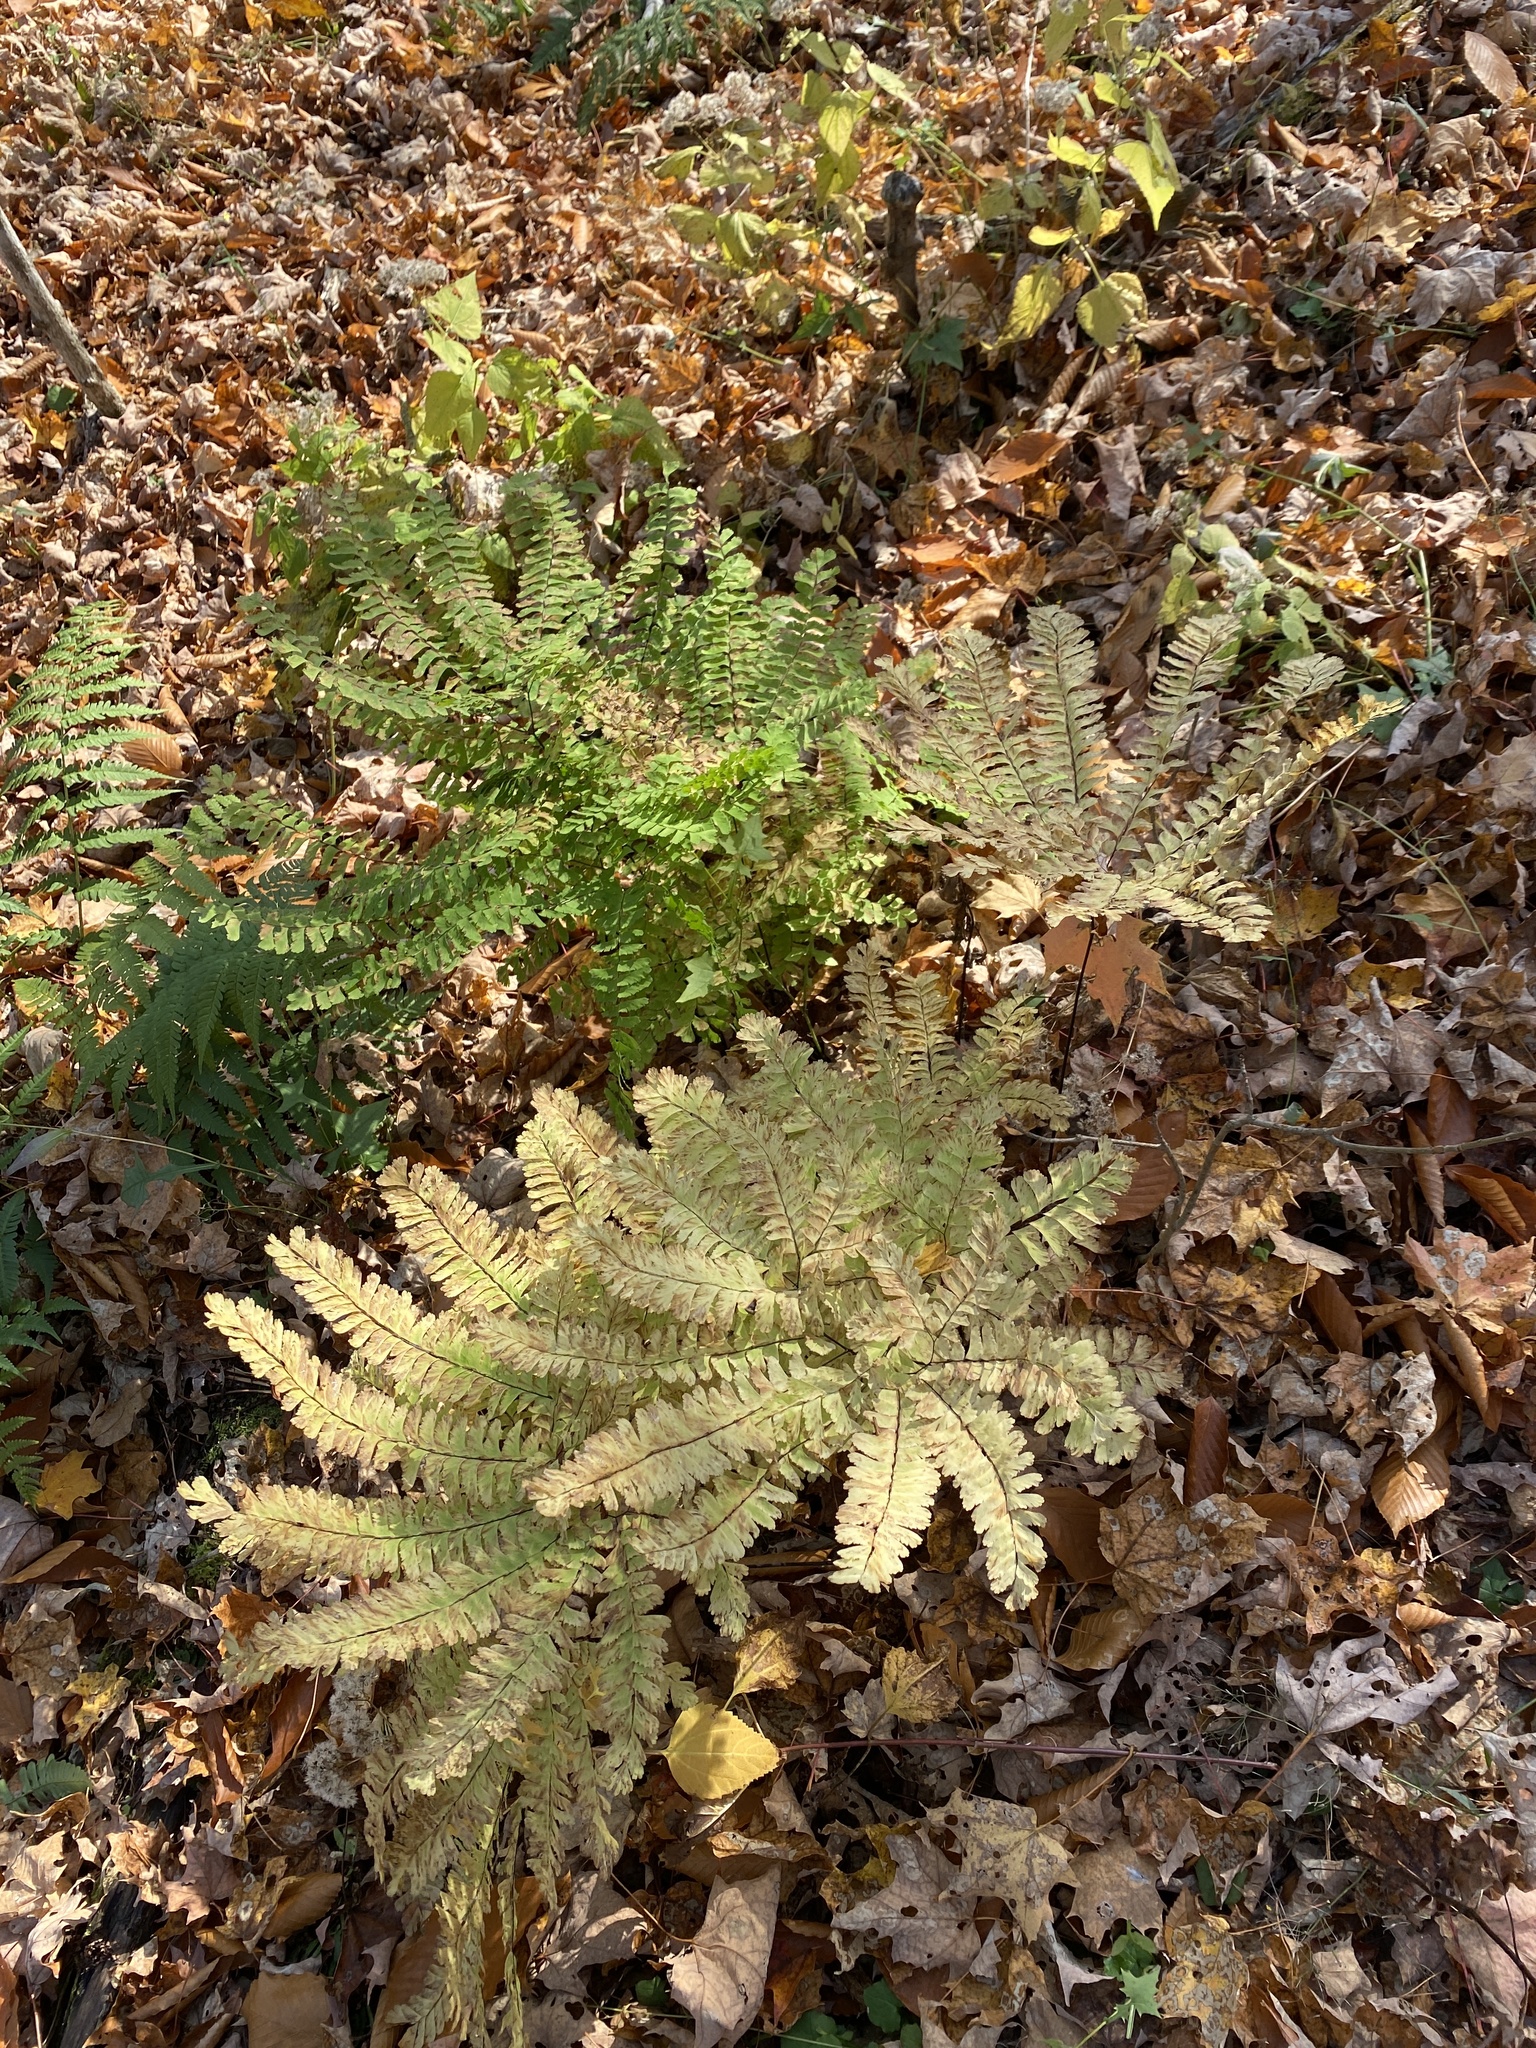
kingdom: Plantae
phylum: Tracheophyta
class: Polypodiopsida
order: Polypodiales
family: Pteridaceae
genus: Adiantum
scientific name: Adiantum pedatum
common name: Five-finger fern
